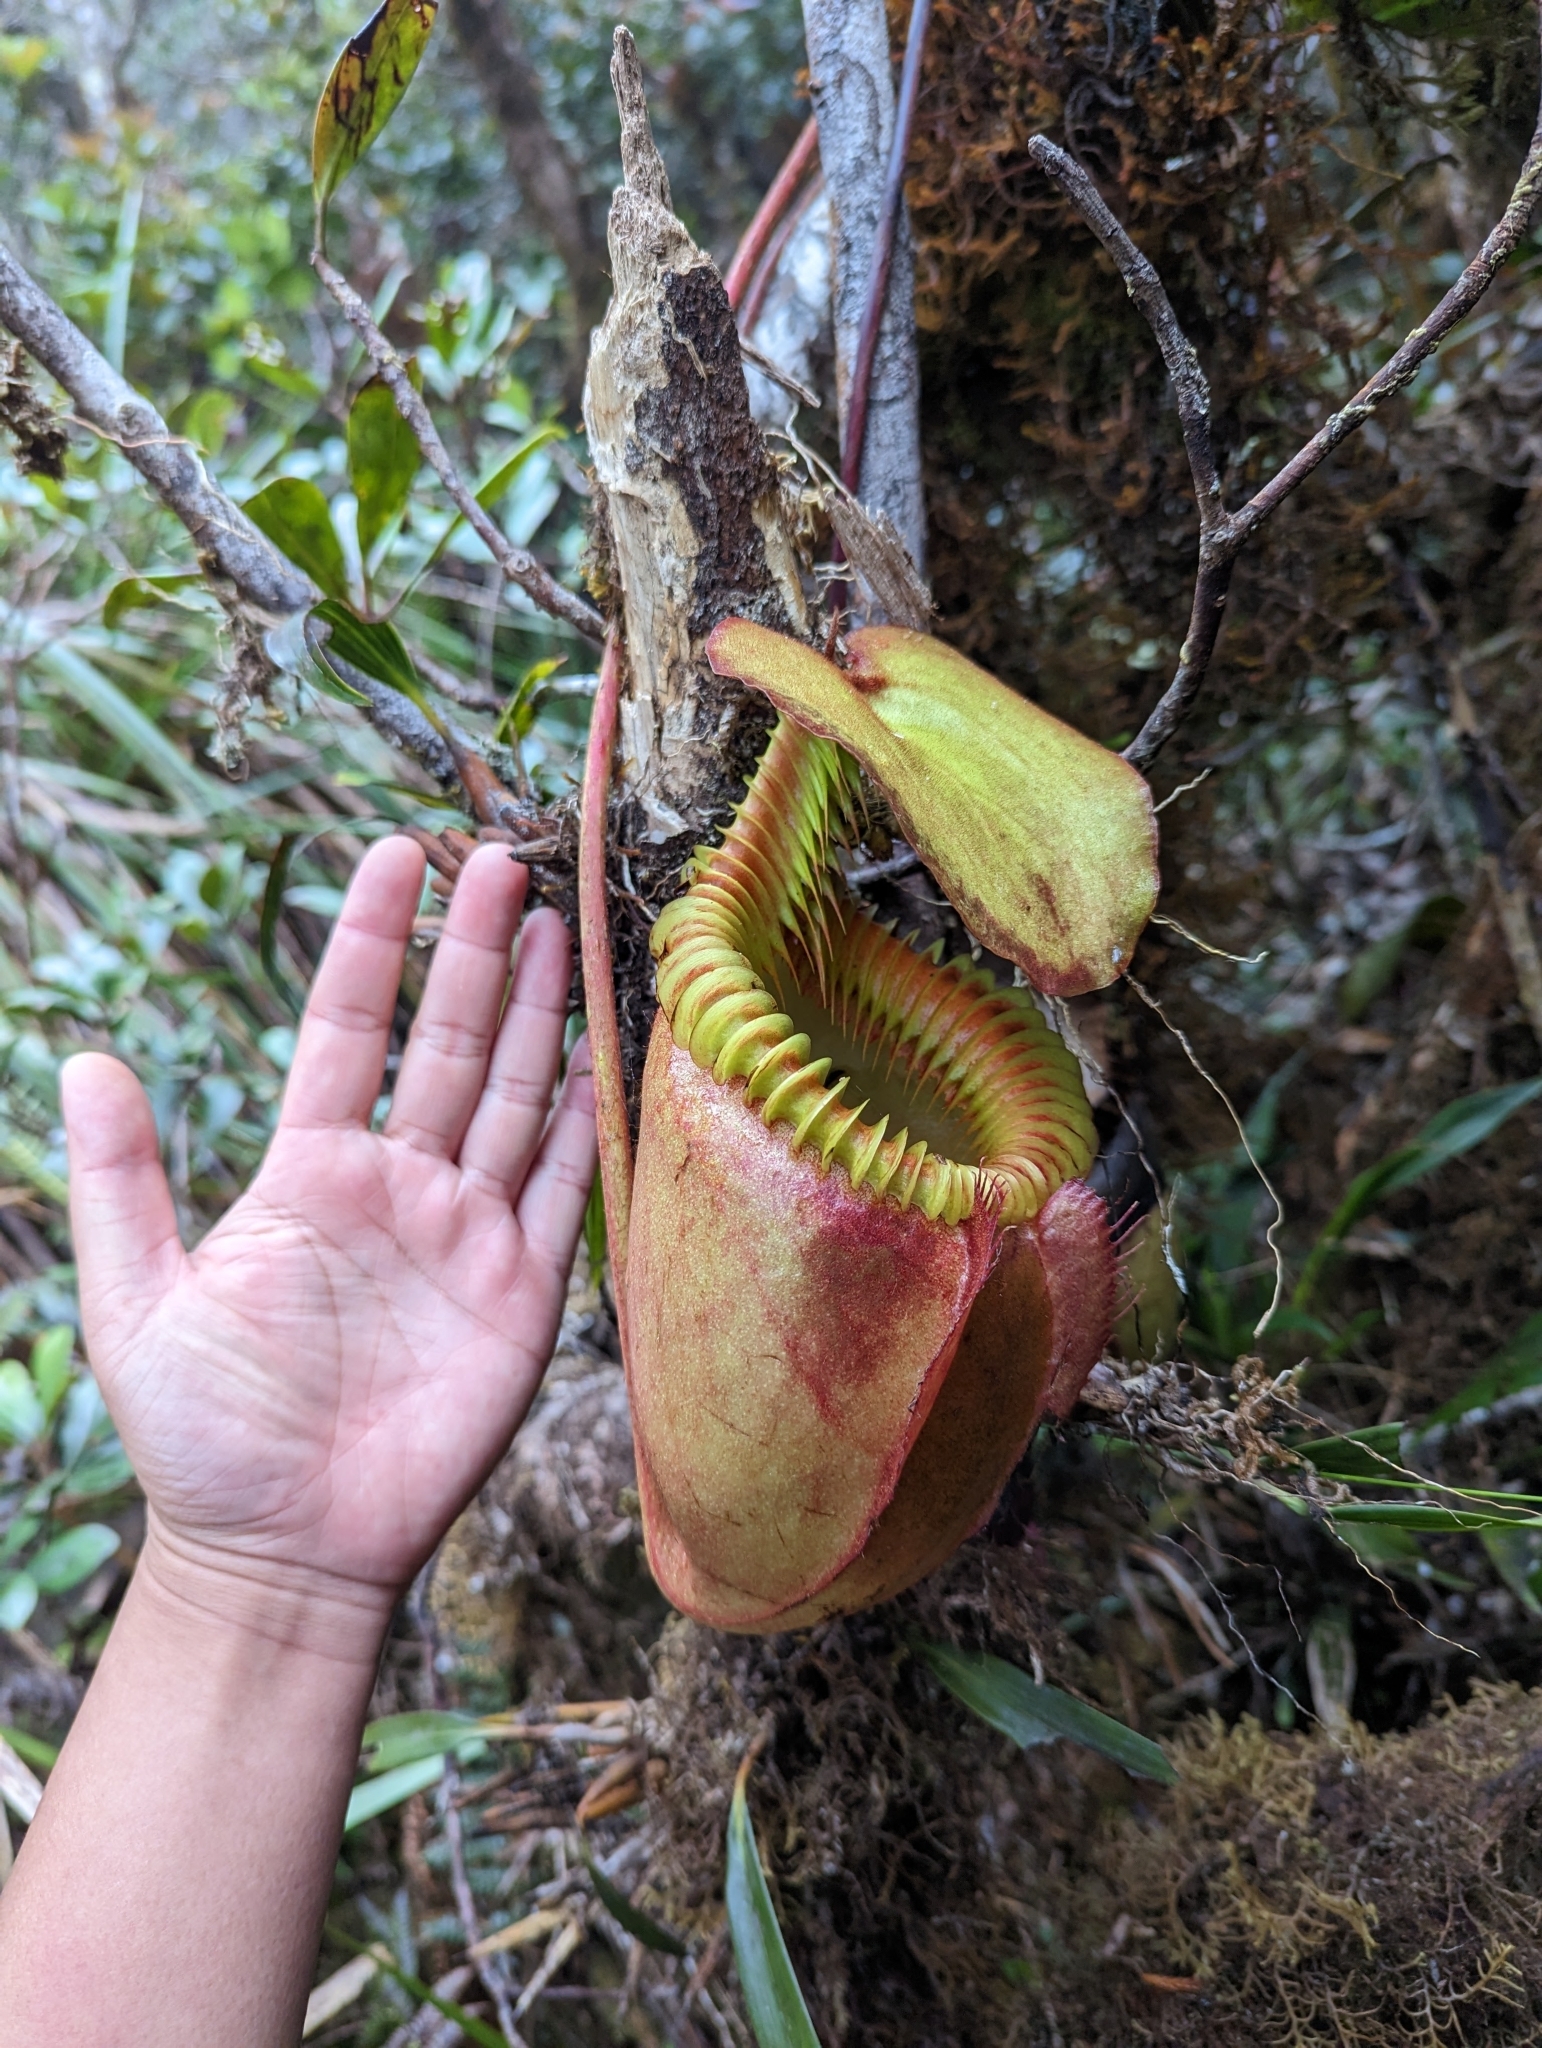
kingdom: Plantae
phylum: Tracheophyta
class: Magnoliopsida
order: Caryophyllales
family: Nepenthaceae
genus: Nepenthes
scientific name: Nepenthes villosa
